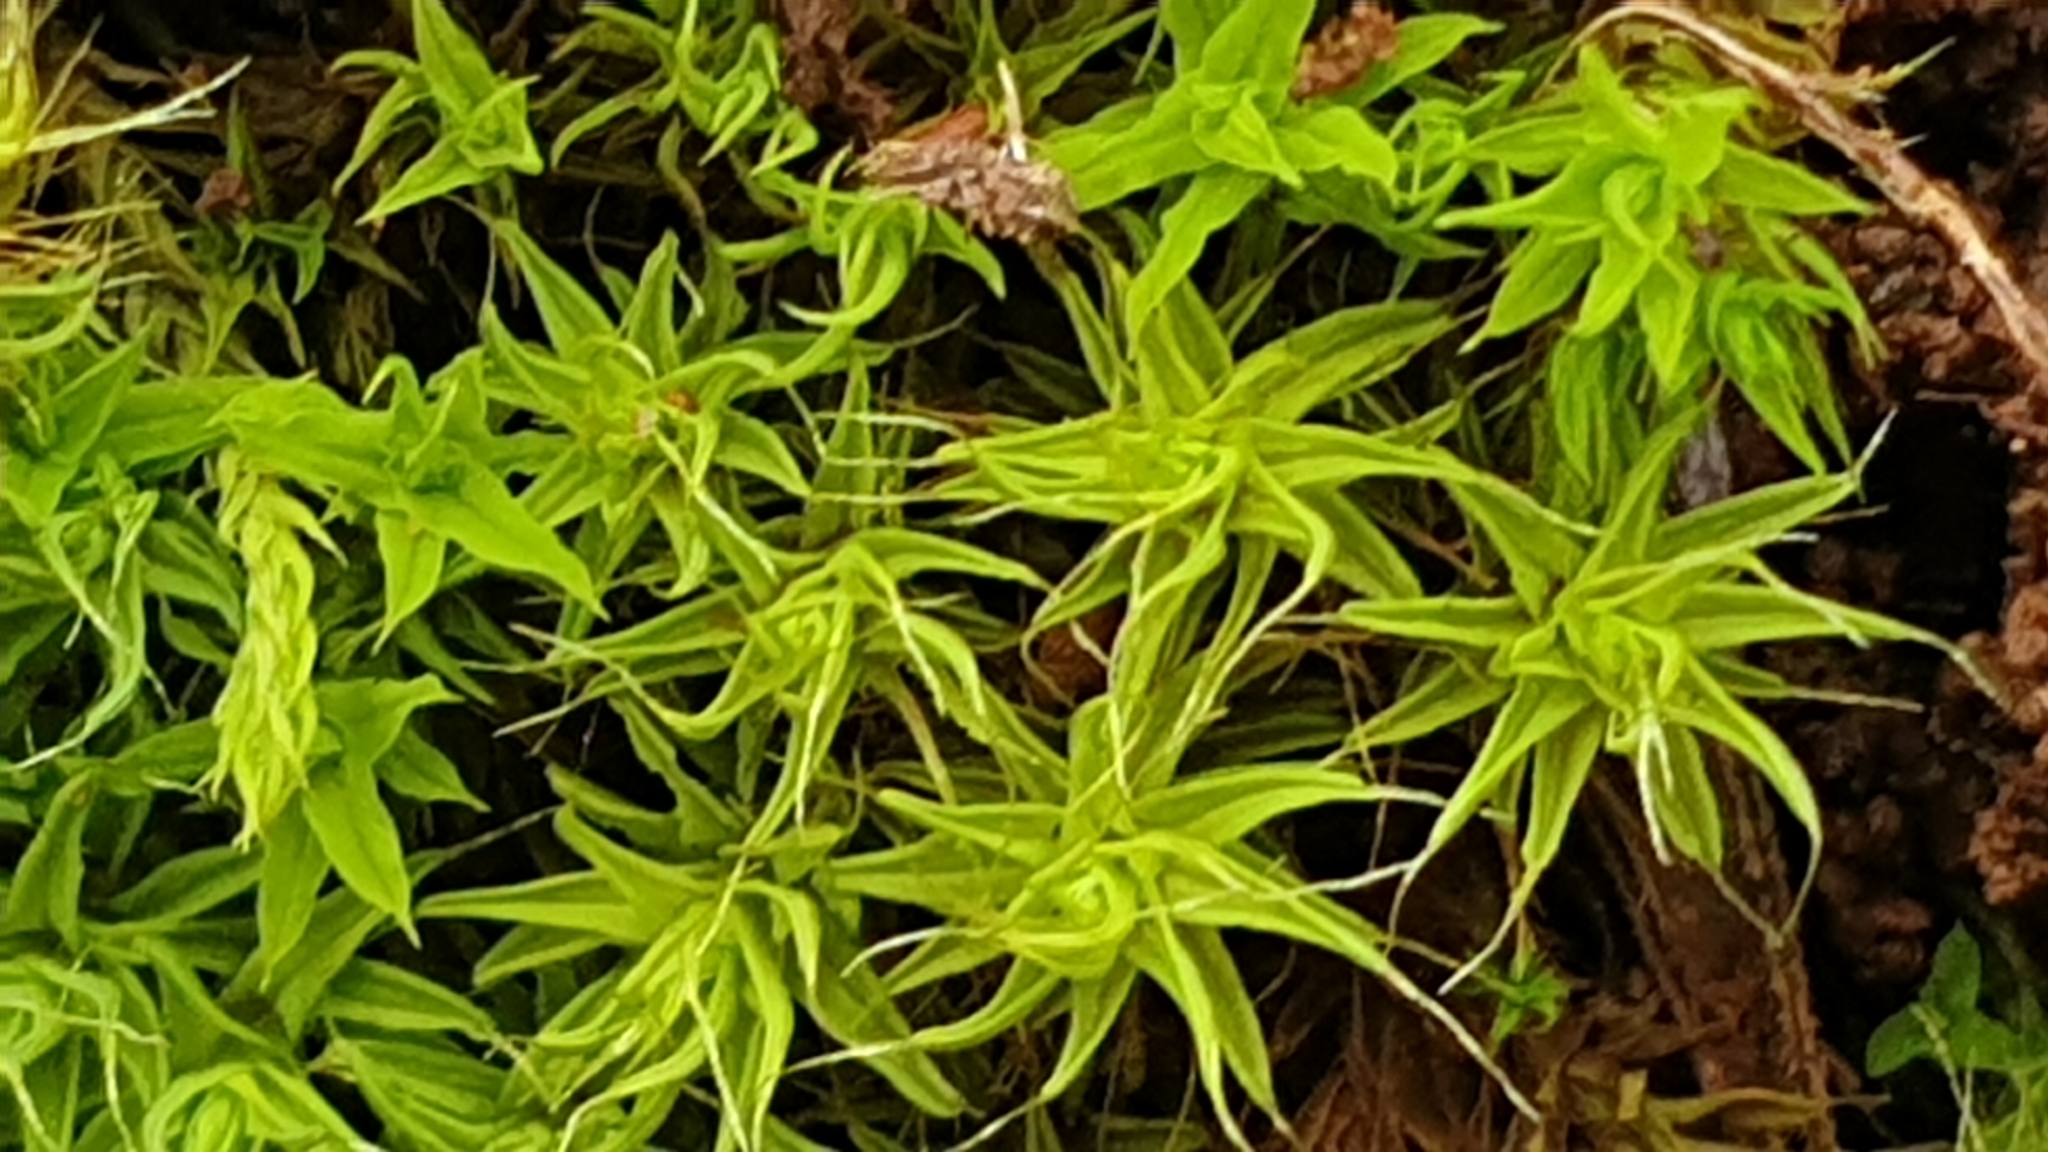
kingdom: Plantae
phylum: Bryophyta
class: Bryopsida
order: Pottiales
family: Pottiaceae
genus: Pseudocrossidium
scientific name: Pseudocrossidium crinitum
